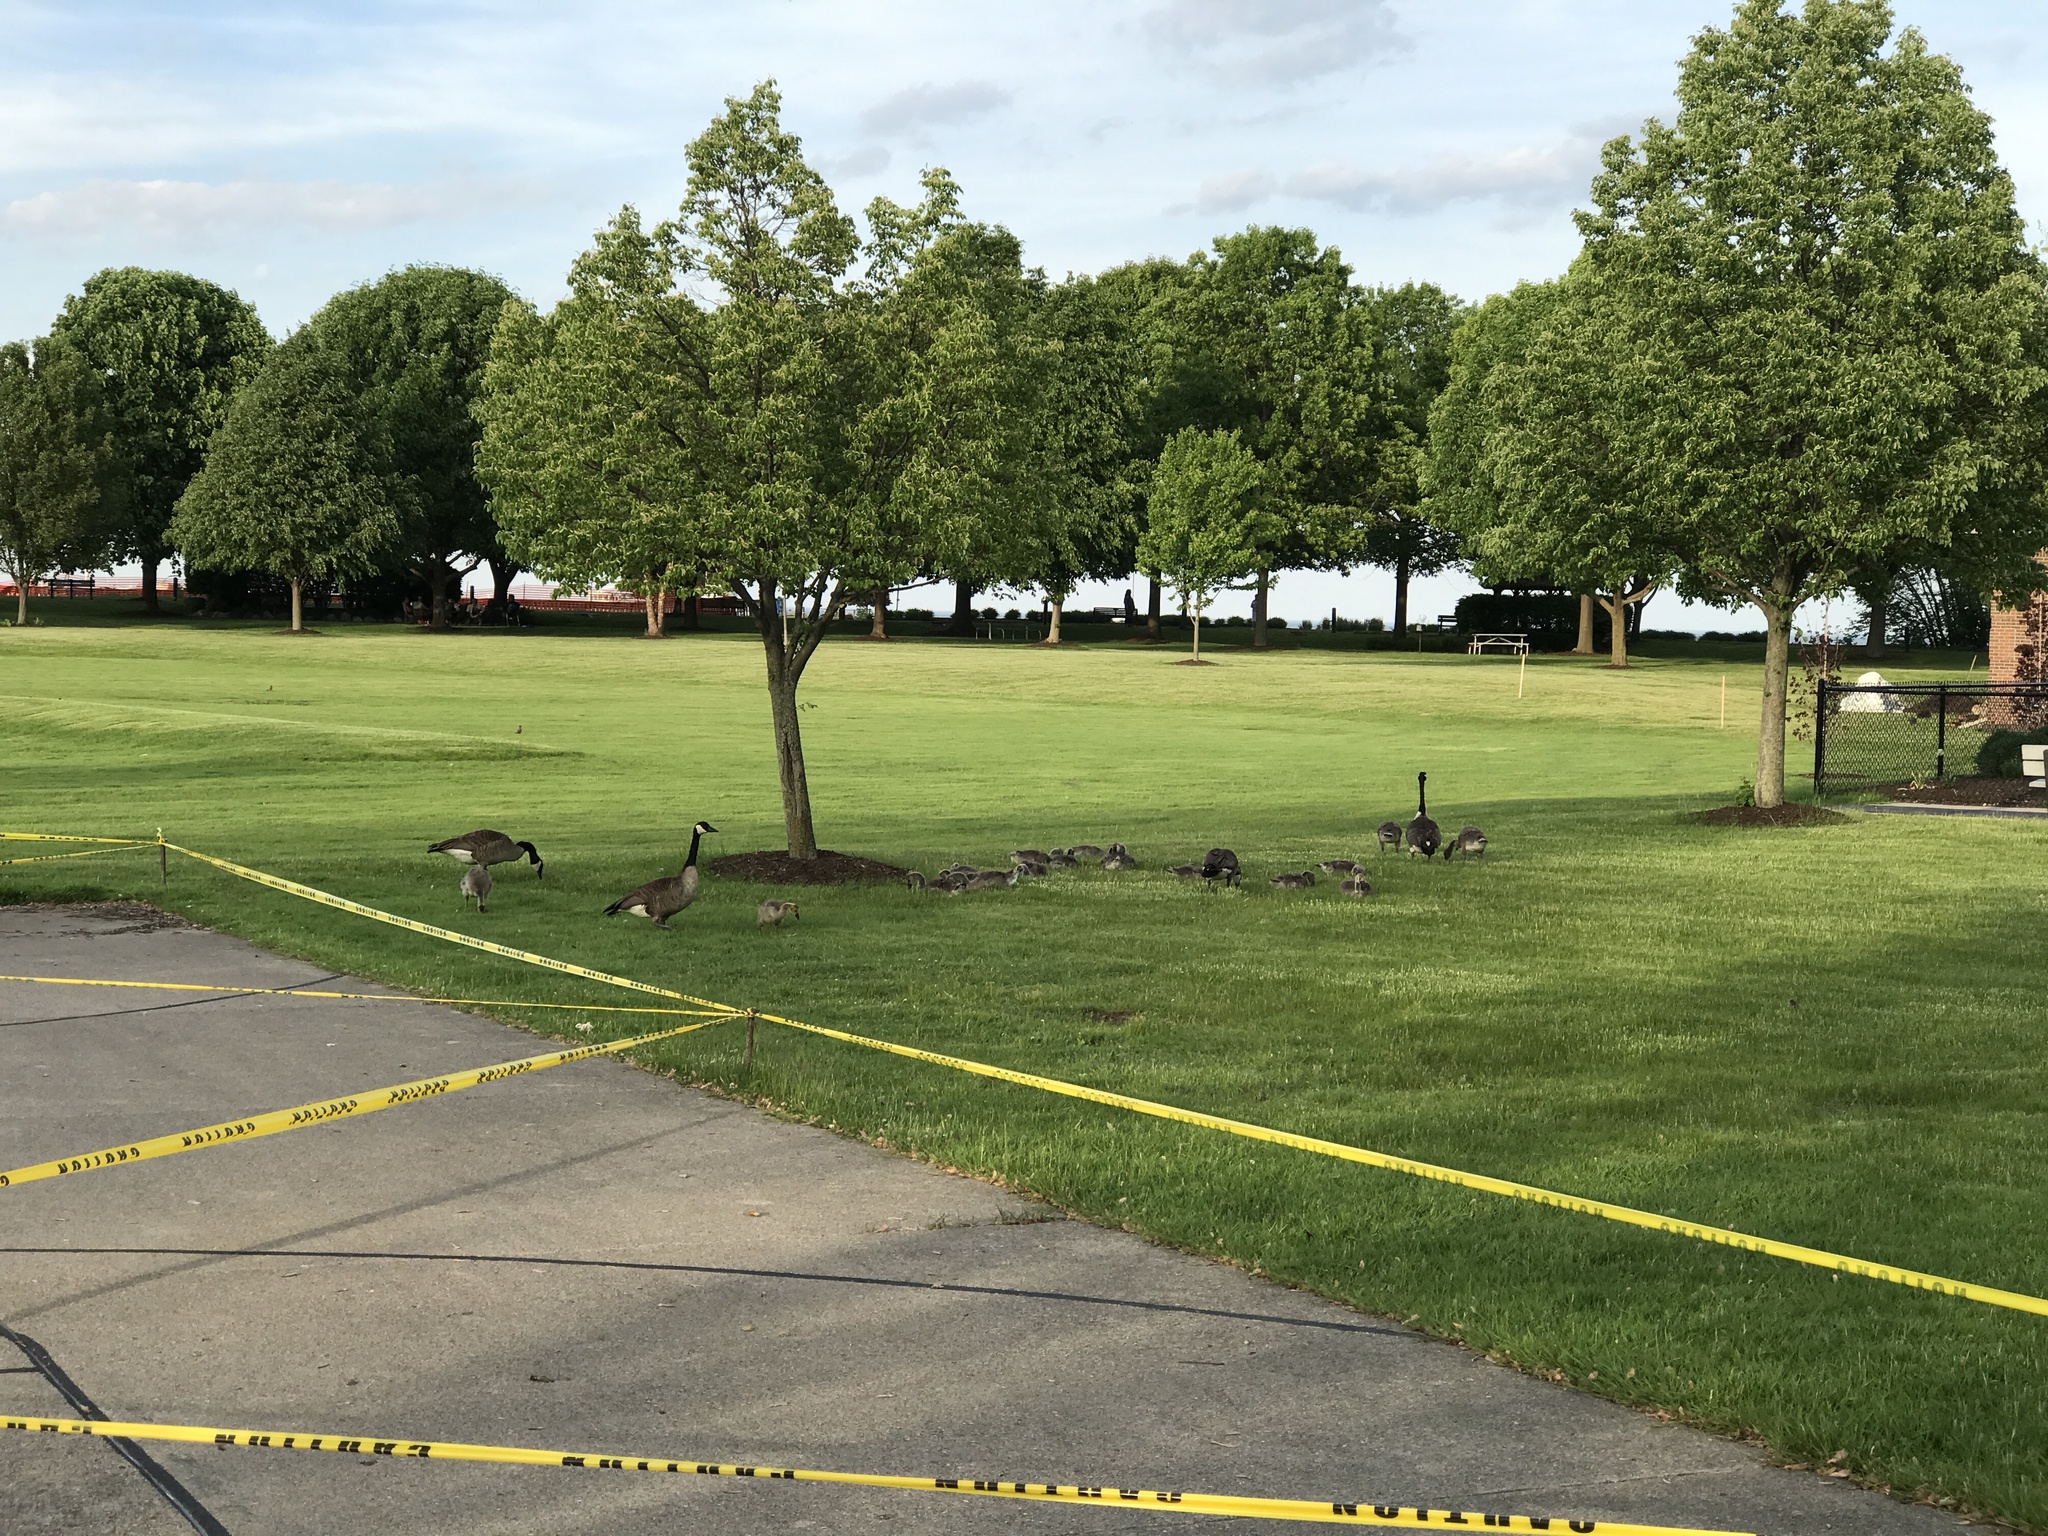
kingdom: Animalia
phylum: Chordata
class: Aves
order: Anseriformes
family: Anatidae
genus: Branta
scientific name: Branta canadensis
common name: Canada goose
